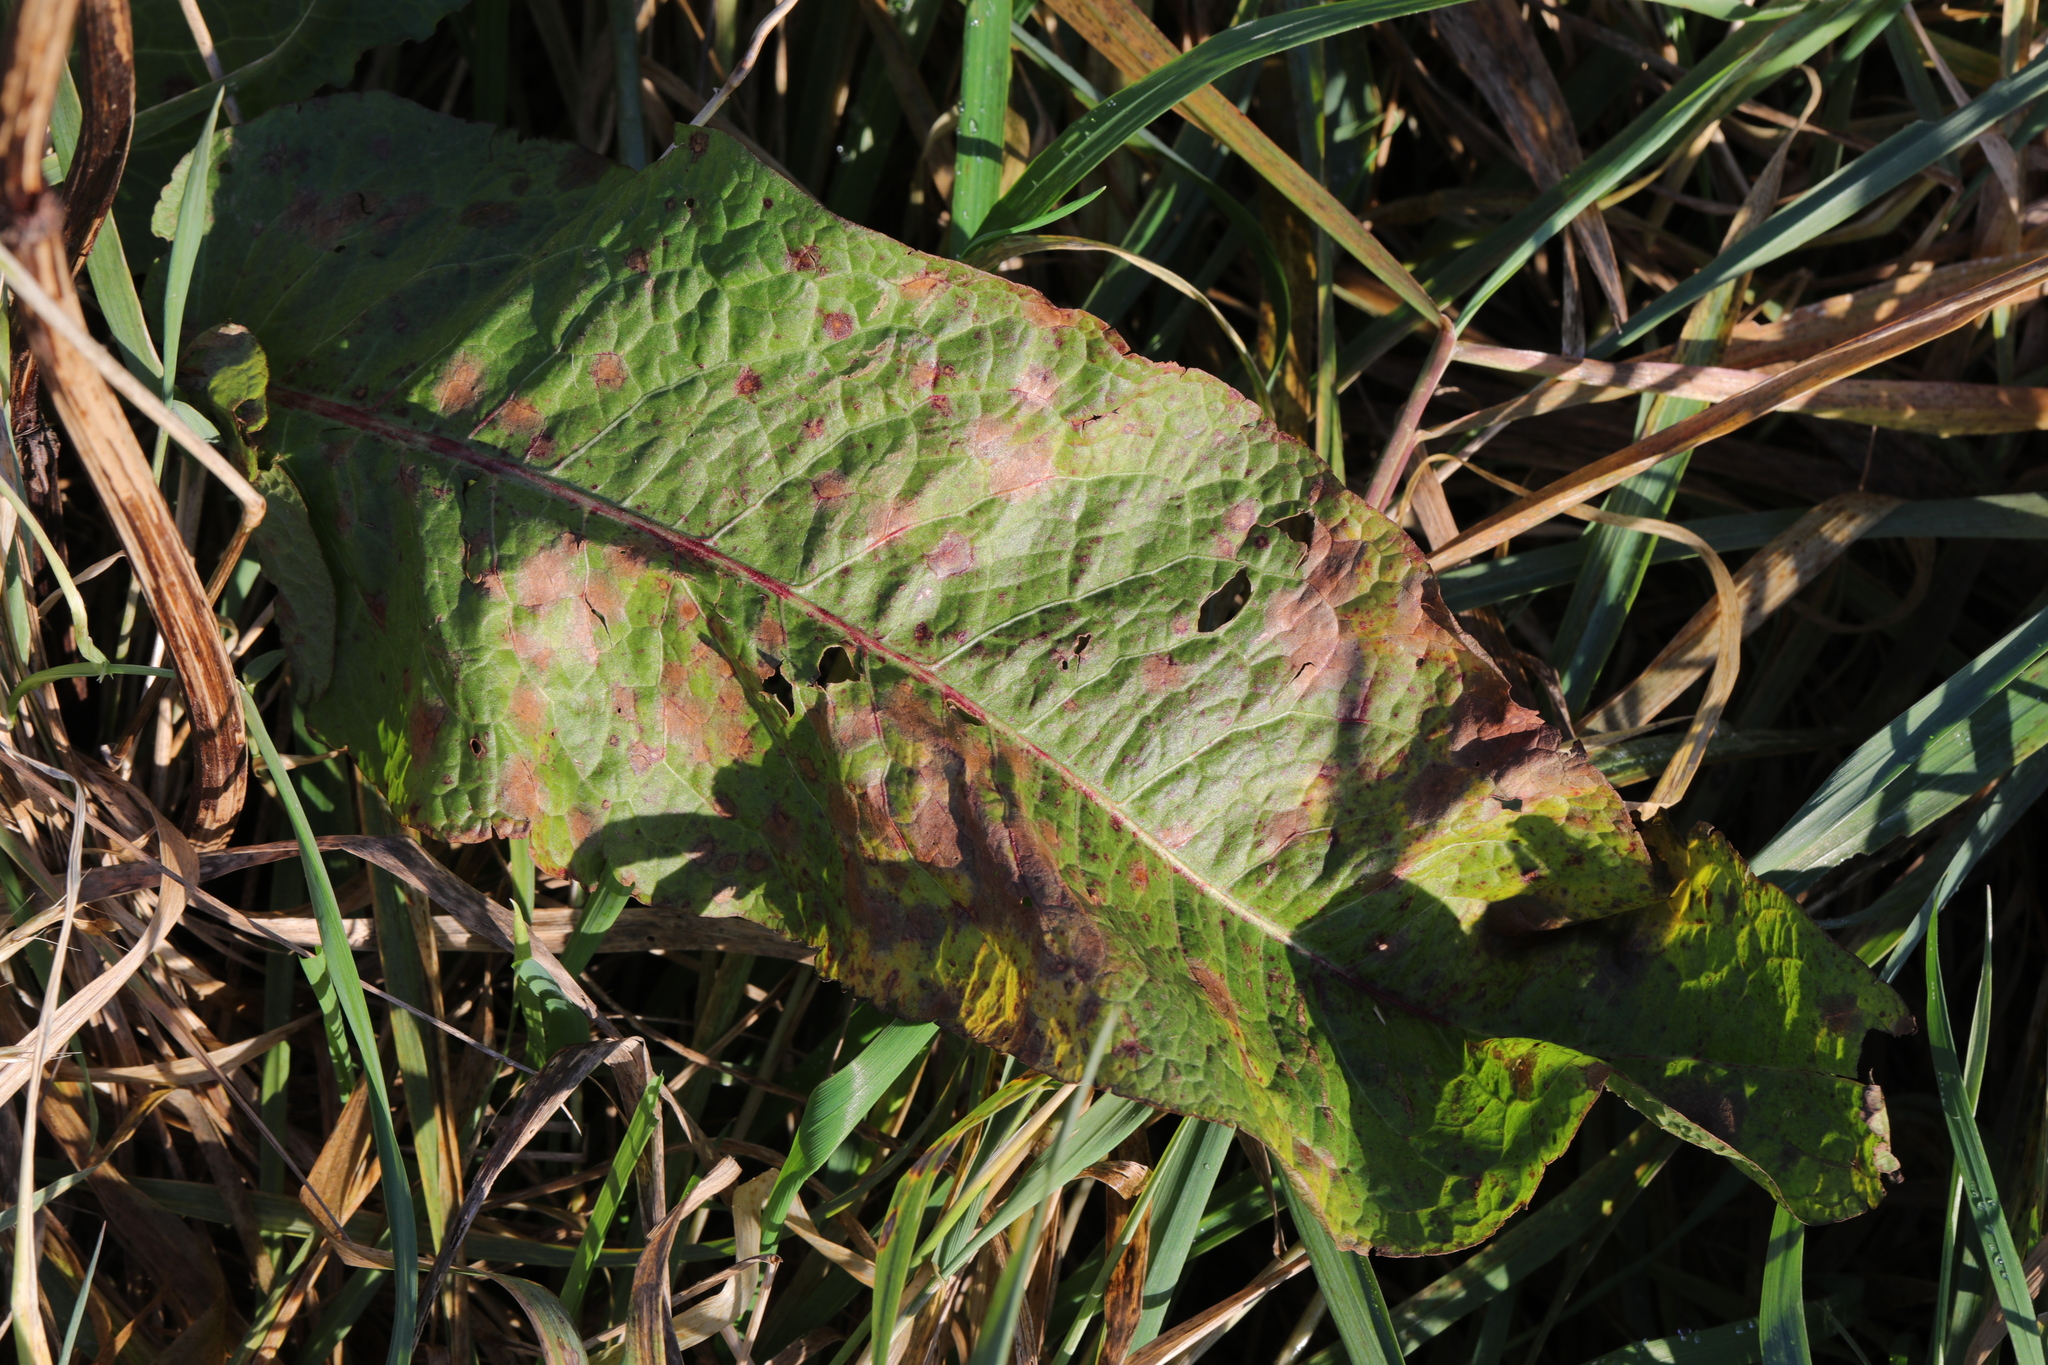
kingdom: Plantae
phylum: Tracheophyta
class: Magnoliopsida
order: Caryophyllales
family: Polygonaceae
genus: Rumex
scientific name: Rumex obtusifolius
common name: Bitter dock
